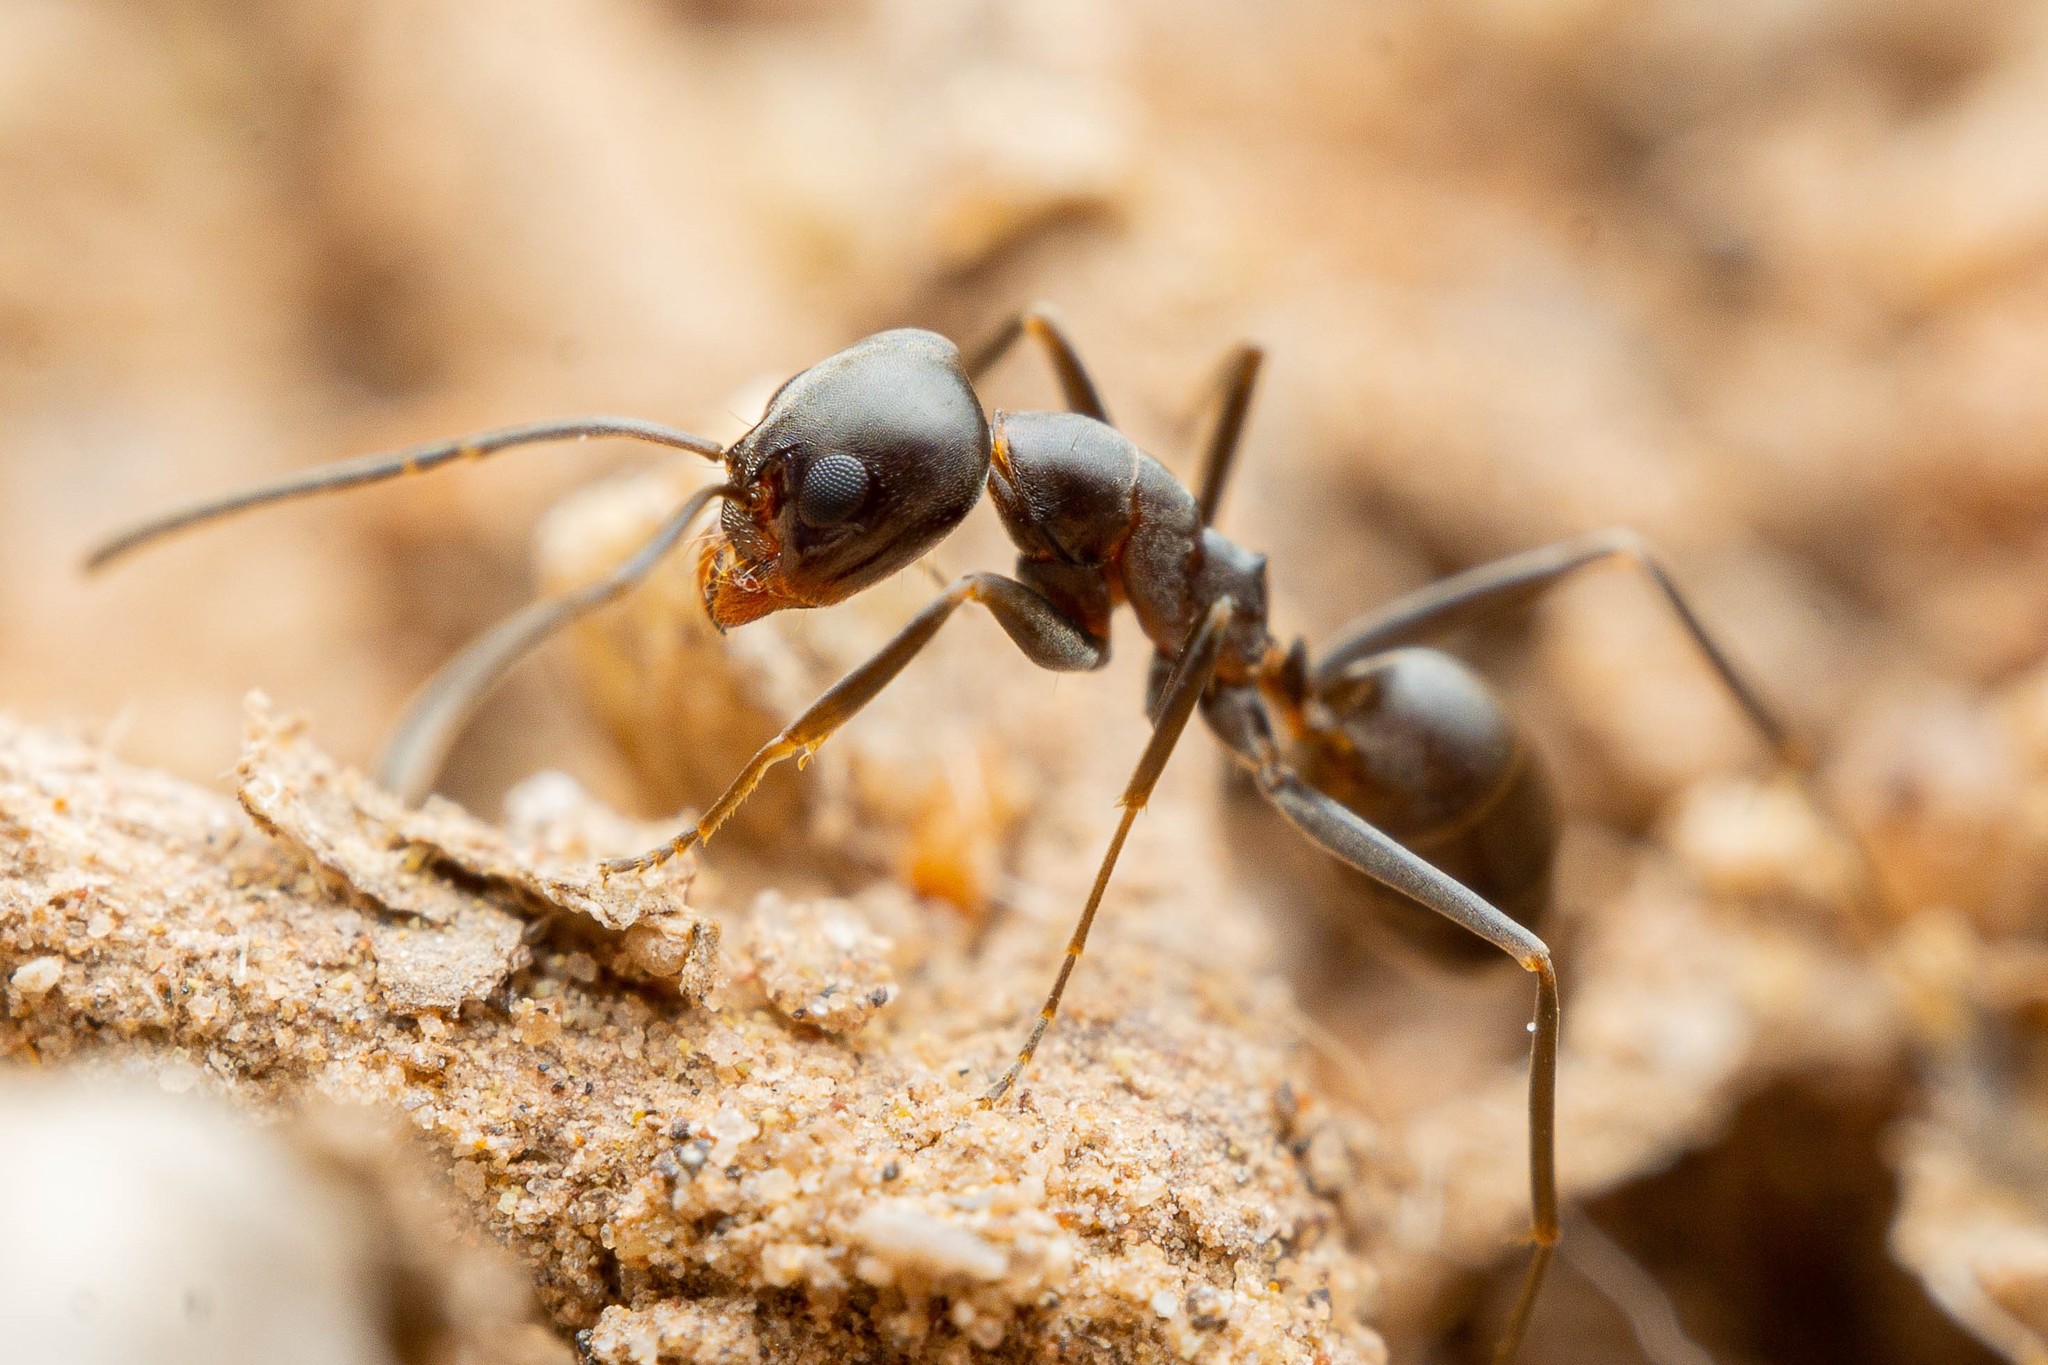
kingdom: Animalia
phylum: Arthropoda
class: Insecta
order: Hymenoptera
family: Formicidae
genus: Dorymyrmex
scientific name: Dorymyrmex insanus
